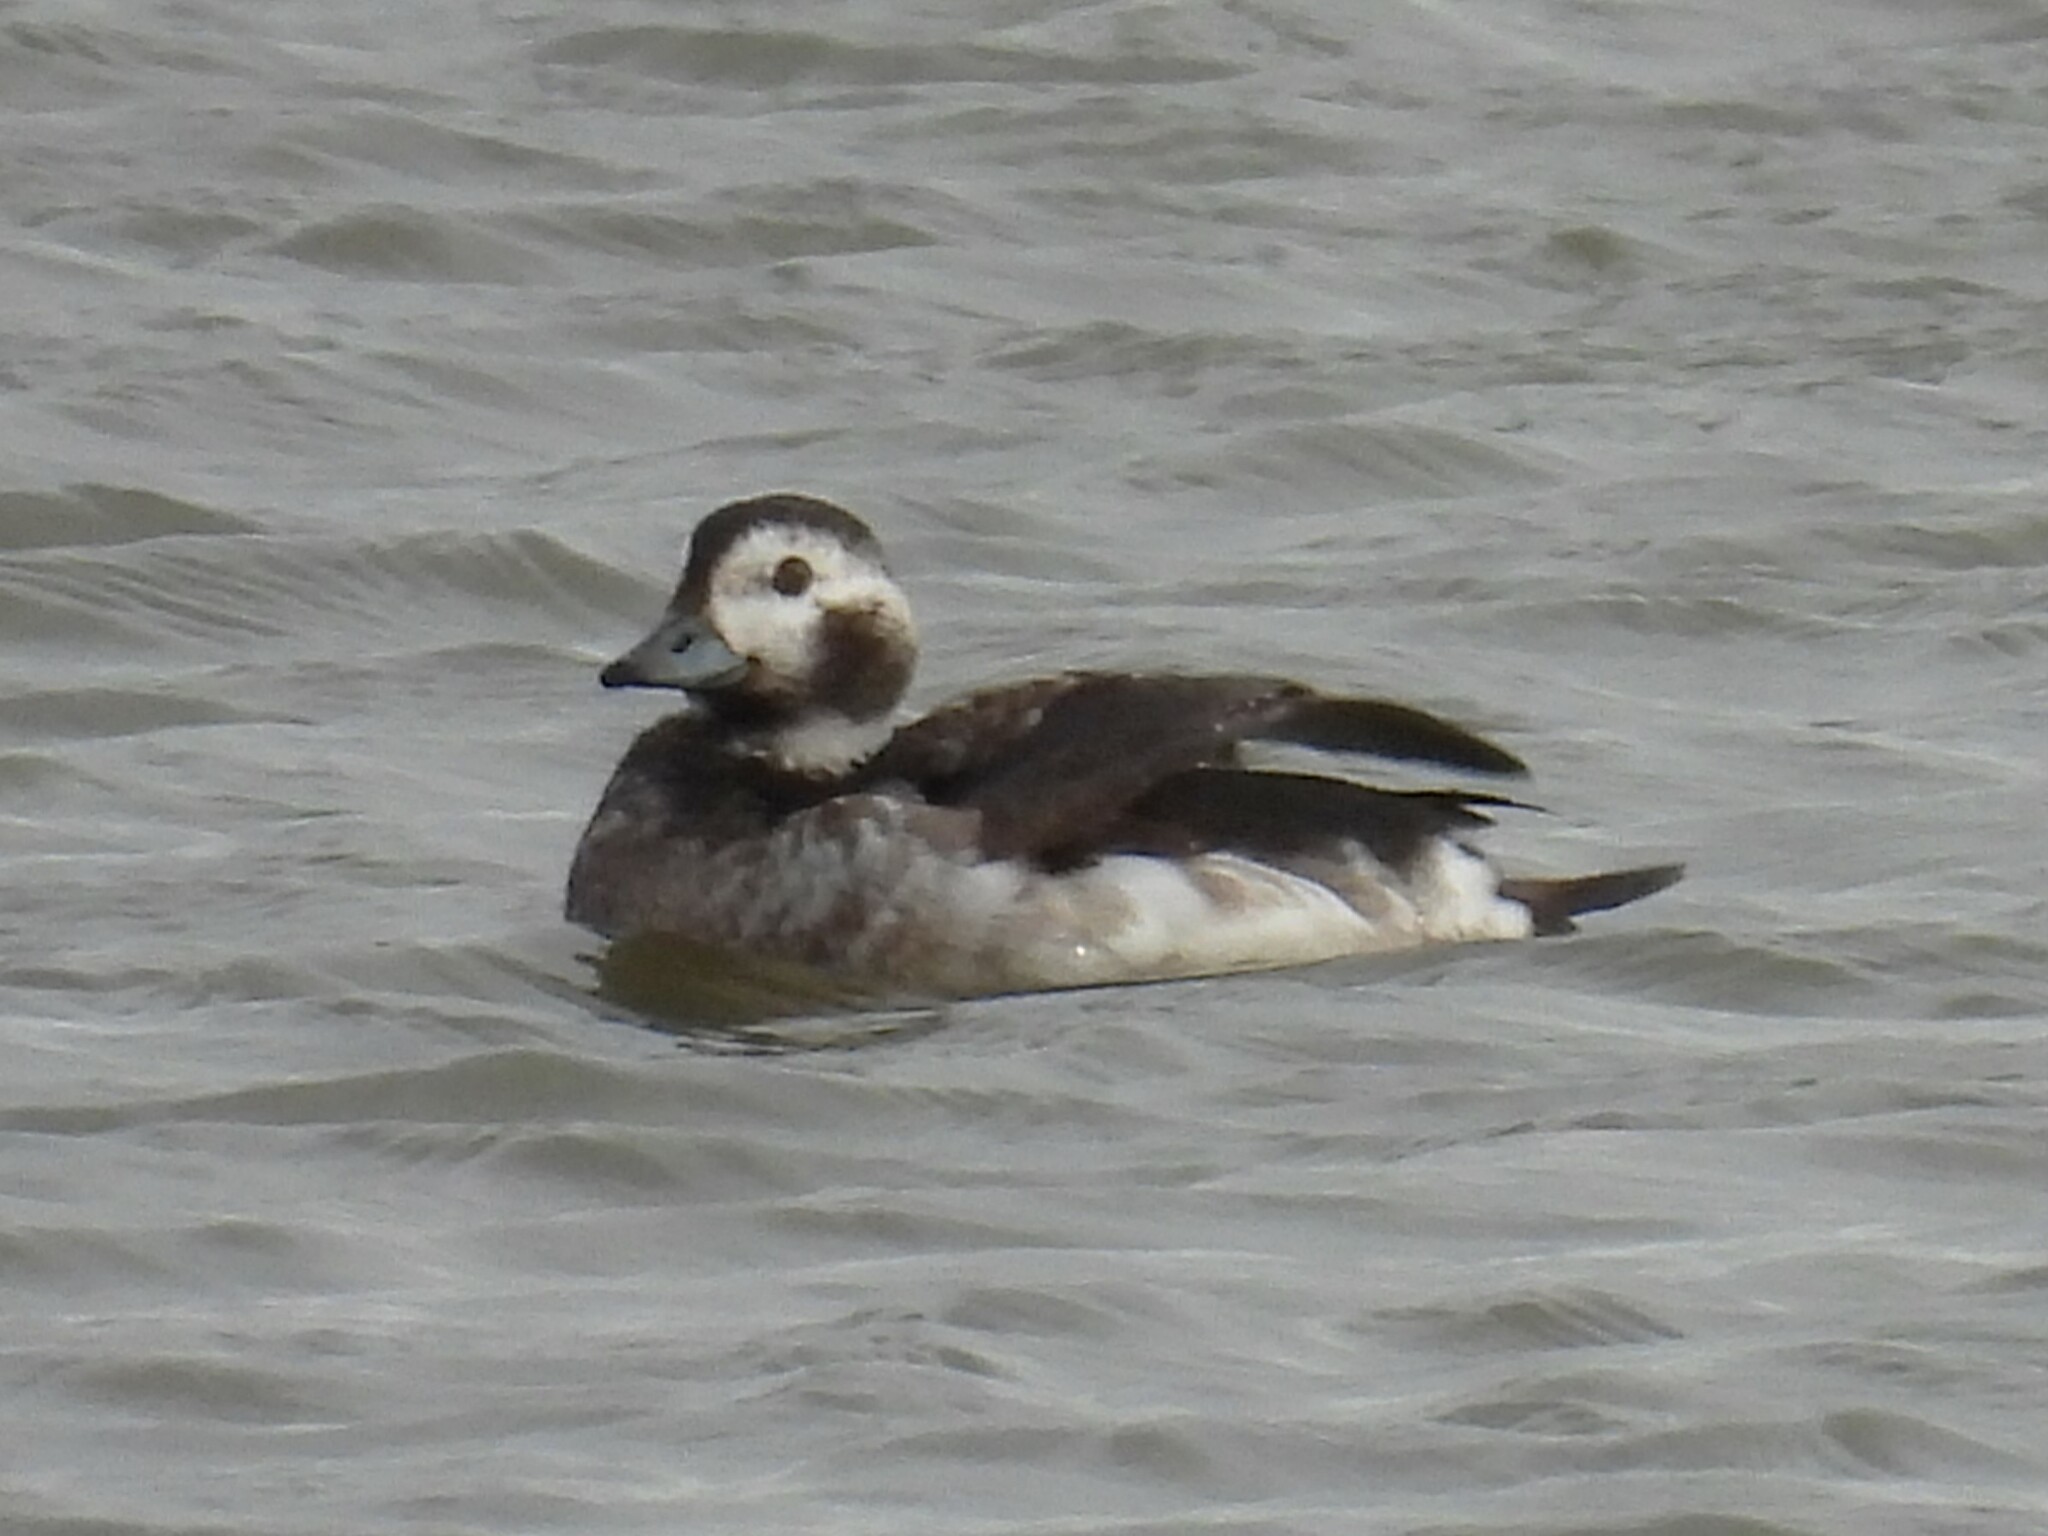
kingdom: Animalia
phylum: Chordata
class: Aves
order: Anseriformes
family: Anatidae
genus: Clangula
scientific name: Clangula hyemalis
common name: Long-tailed duck
